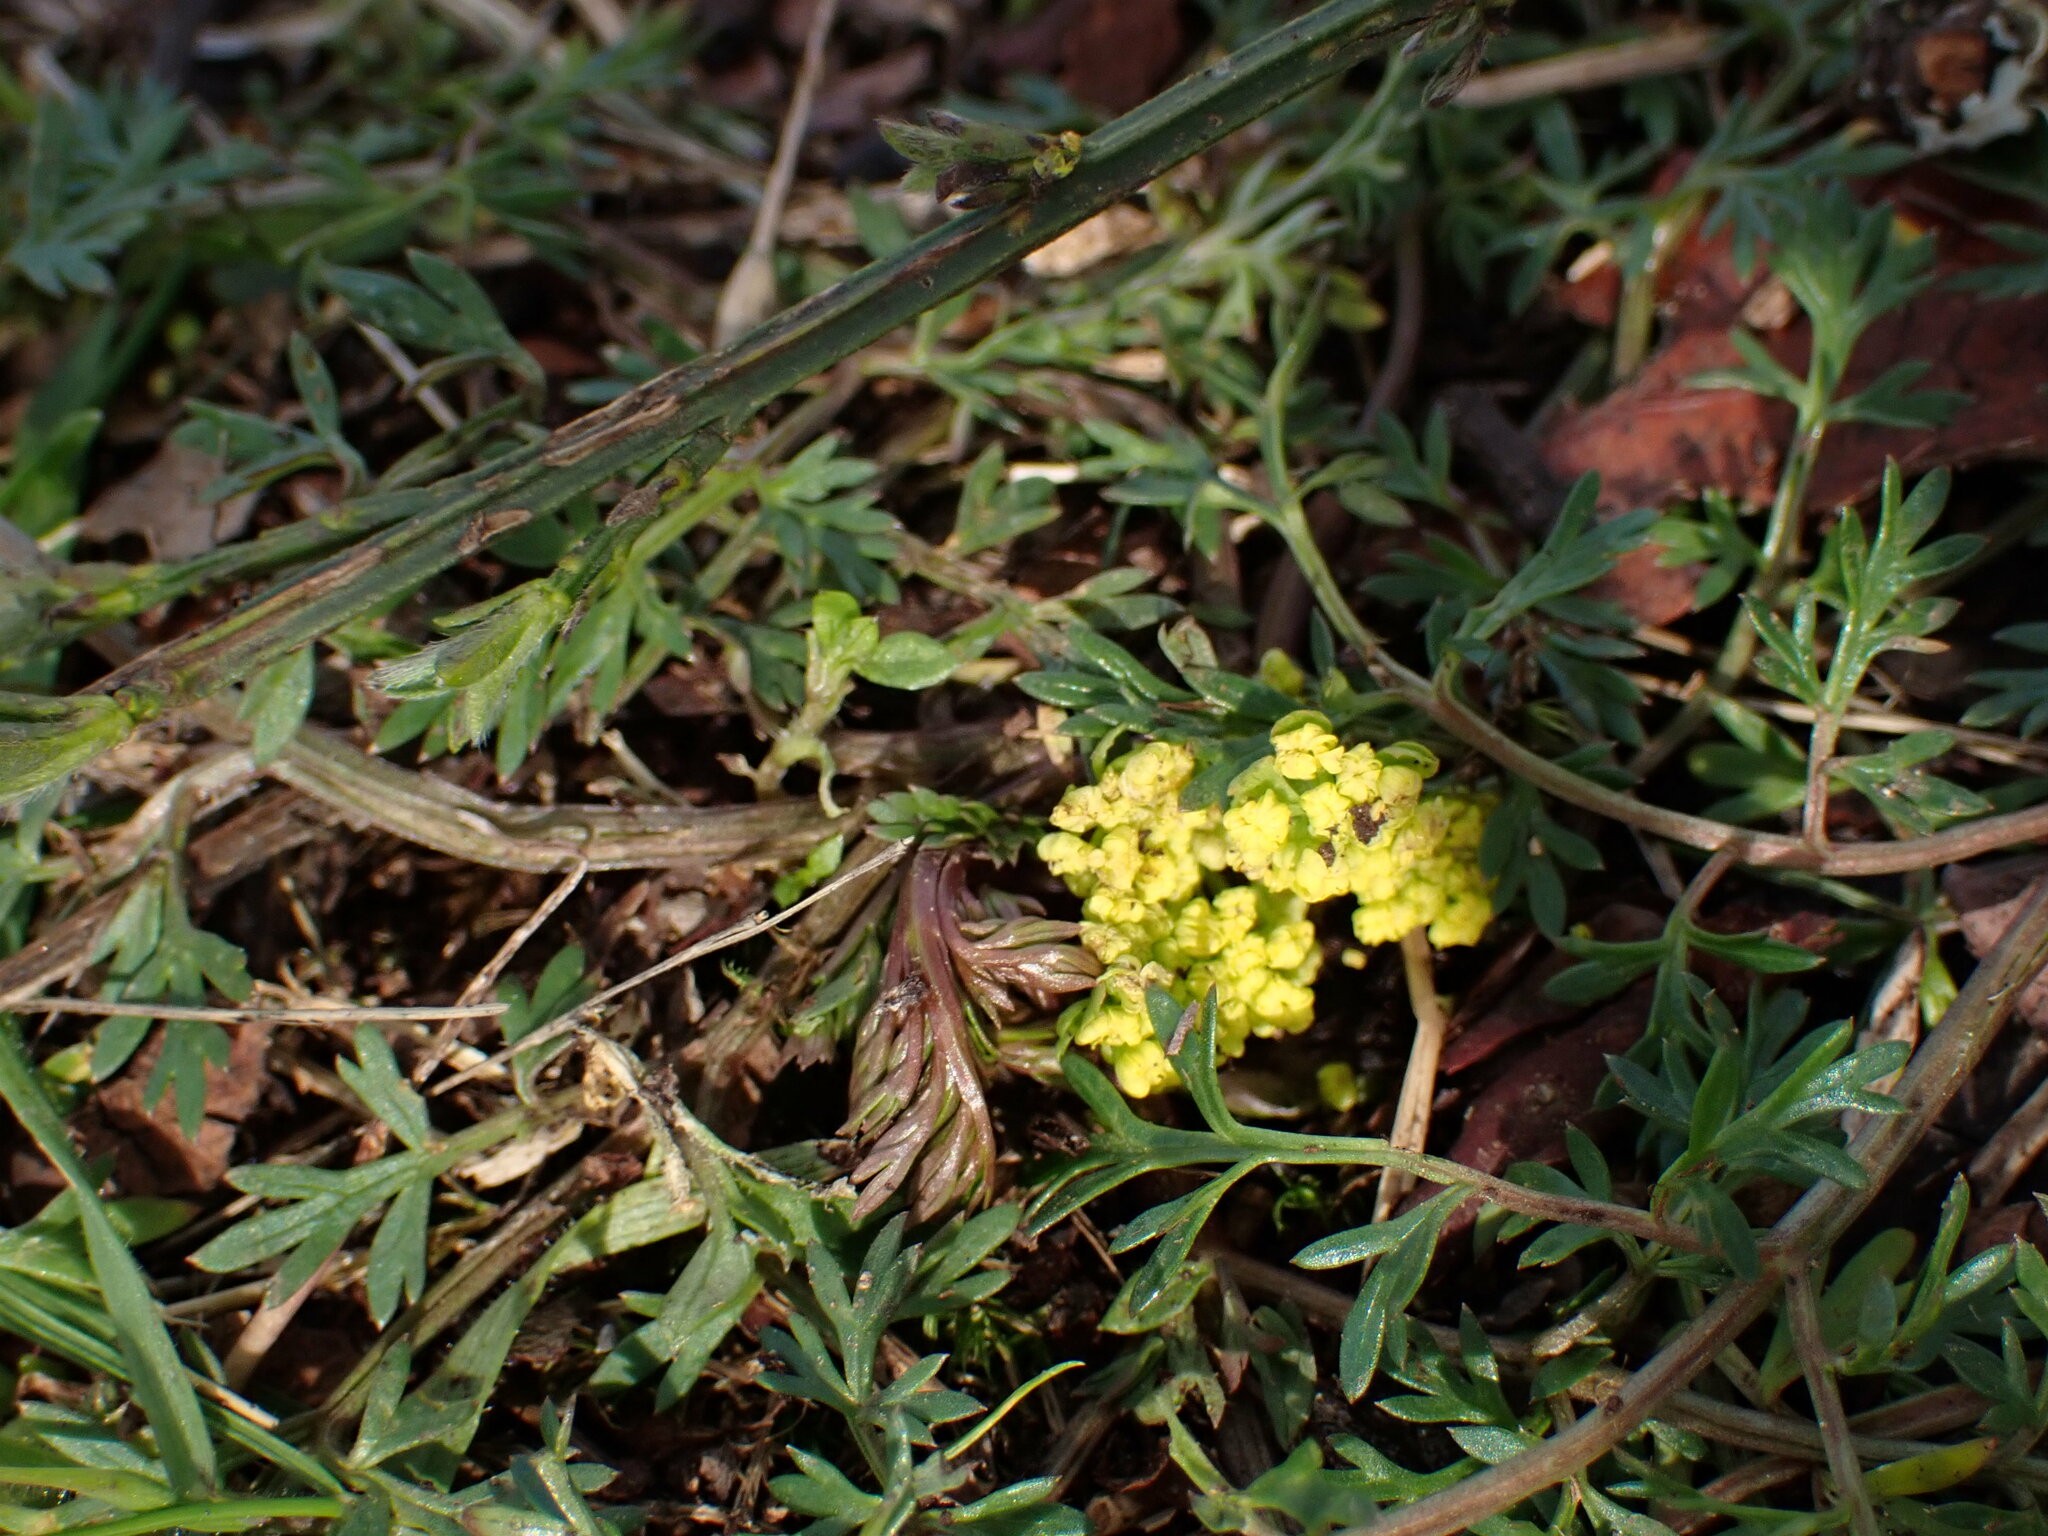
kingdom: Plantae
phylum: Tracheophyta
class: Magnoliopsida
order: Apiales
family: Apiaceae
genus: Lomatium
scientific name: Lomatium utriculatum
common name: Fine-leaf desert-parsley
